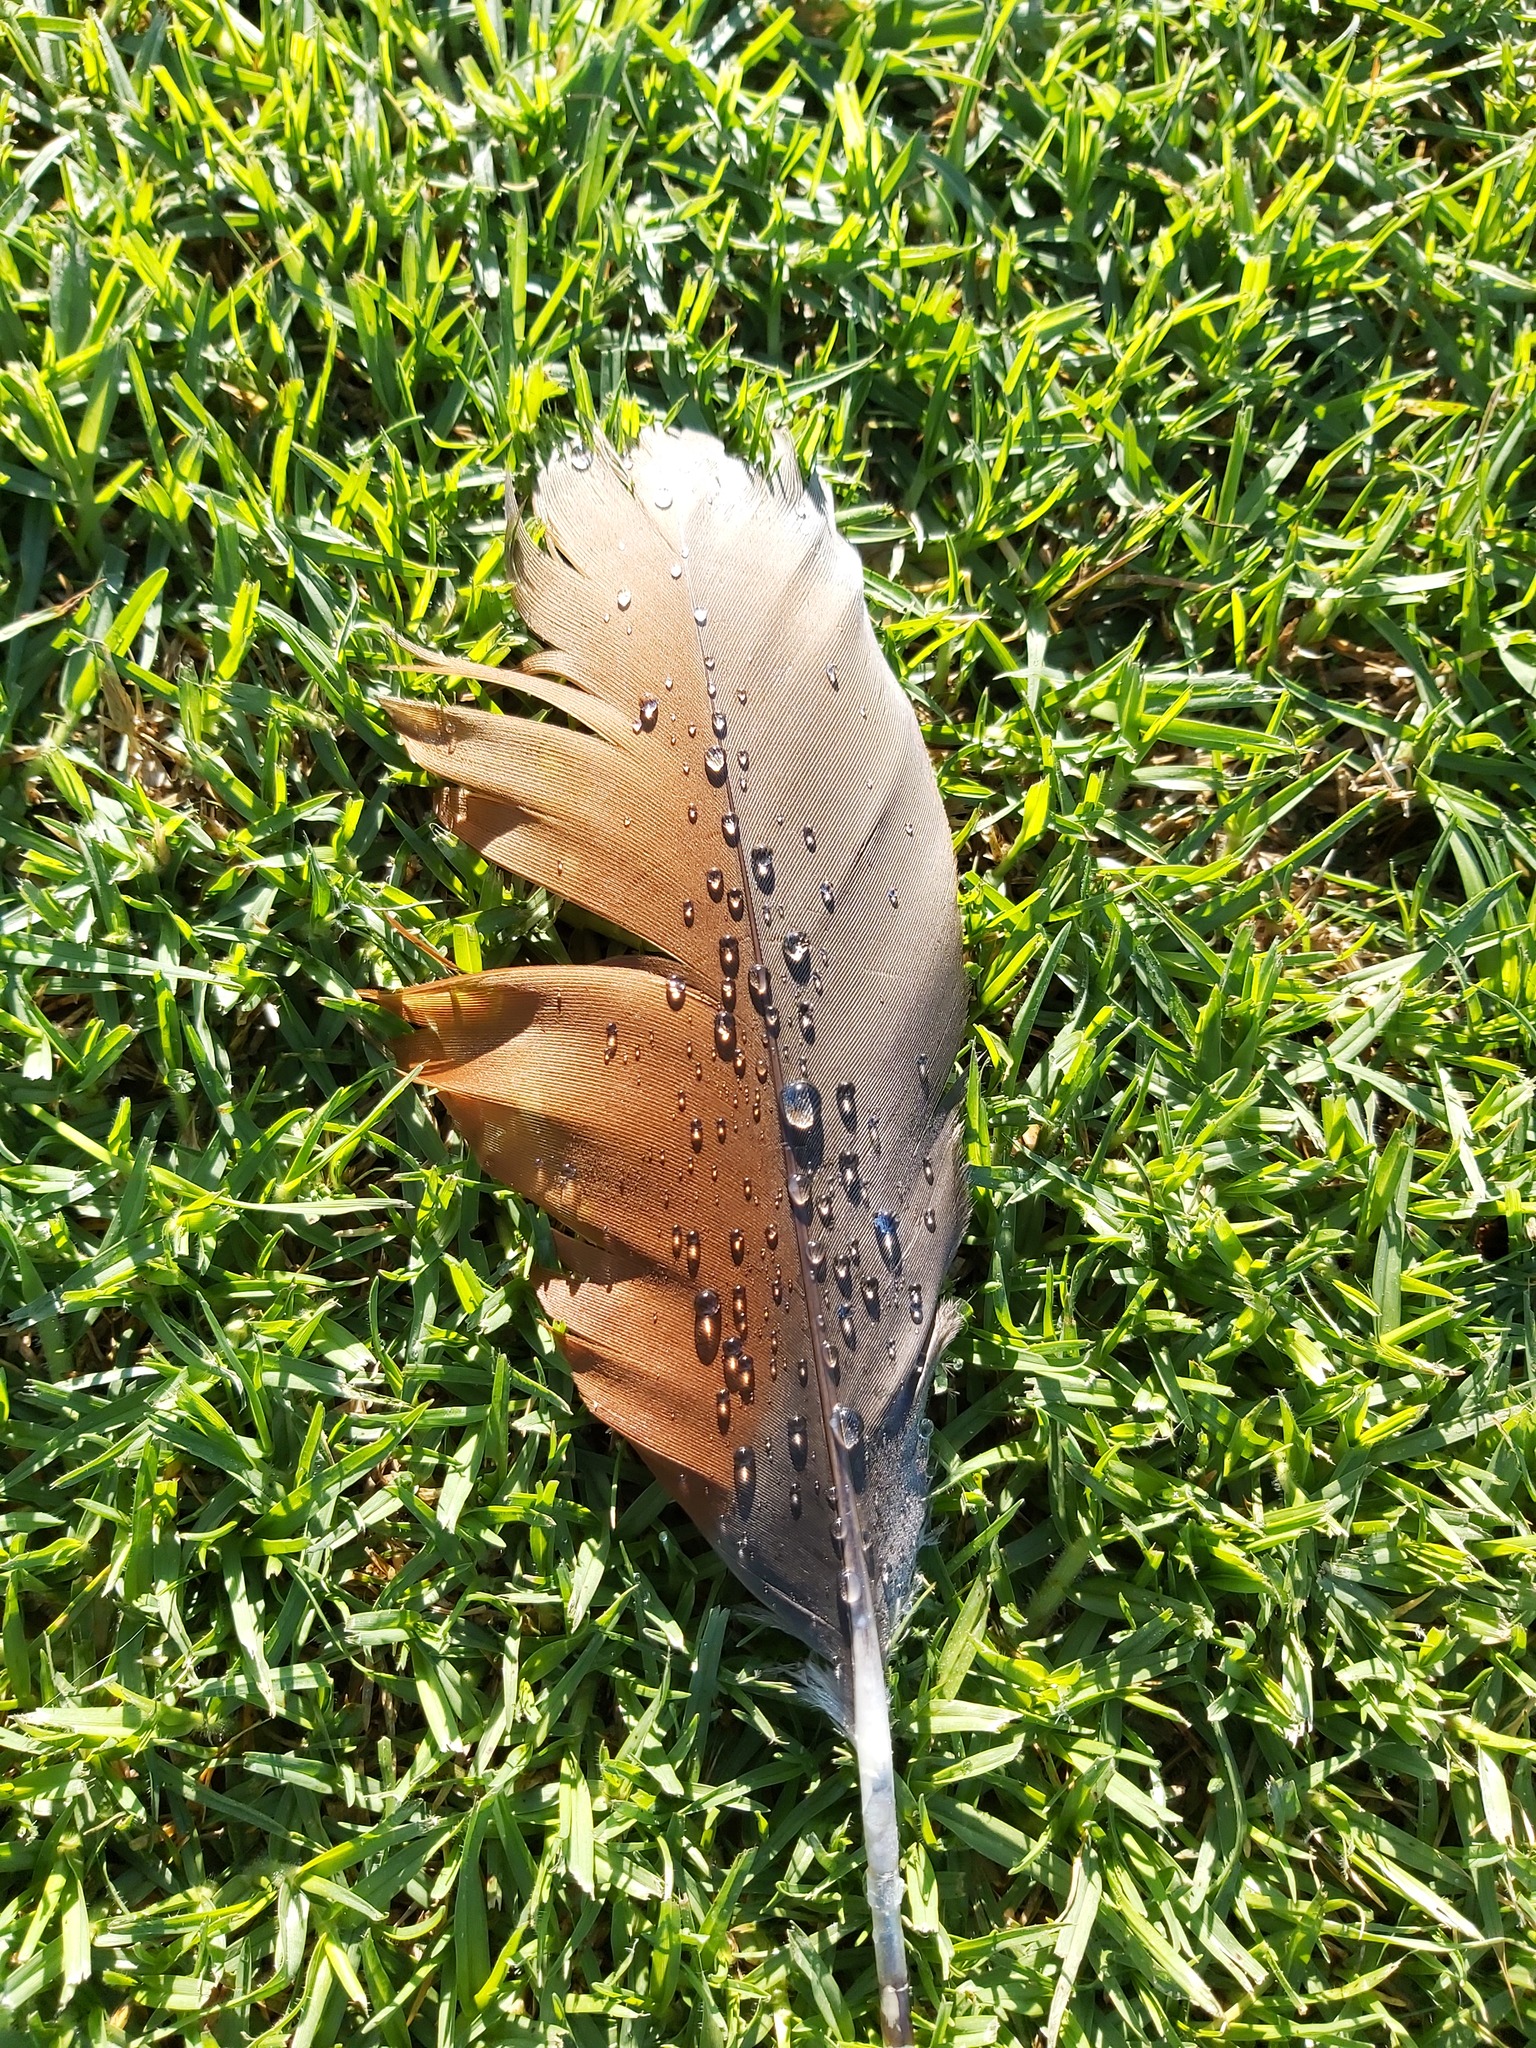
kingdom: Animalia
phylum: Chordata
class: Aves
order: Anseriformes
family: Anatidae
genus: Alopochen
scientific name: Alopochen aegyptiaca
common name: Egyptian goose
